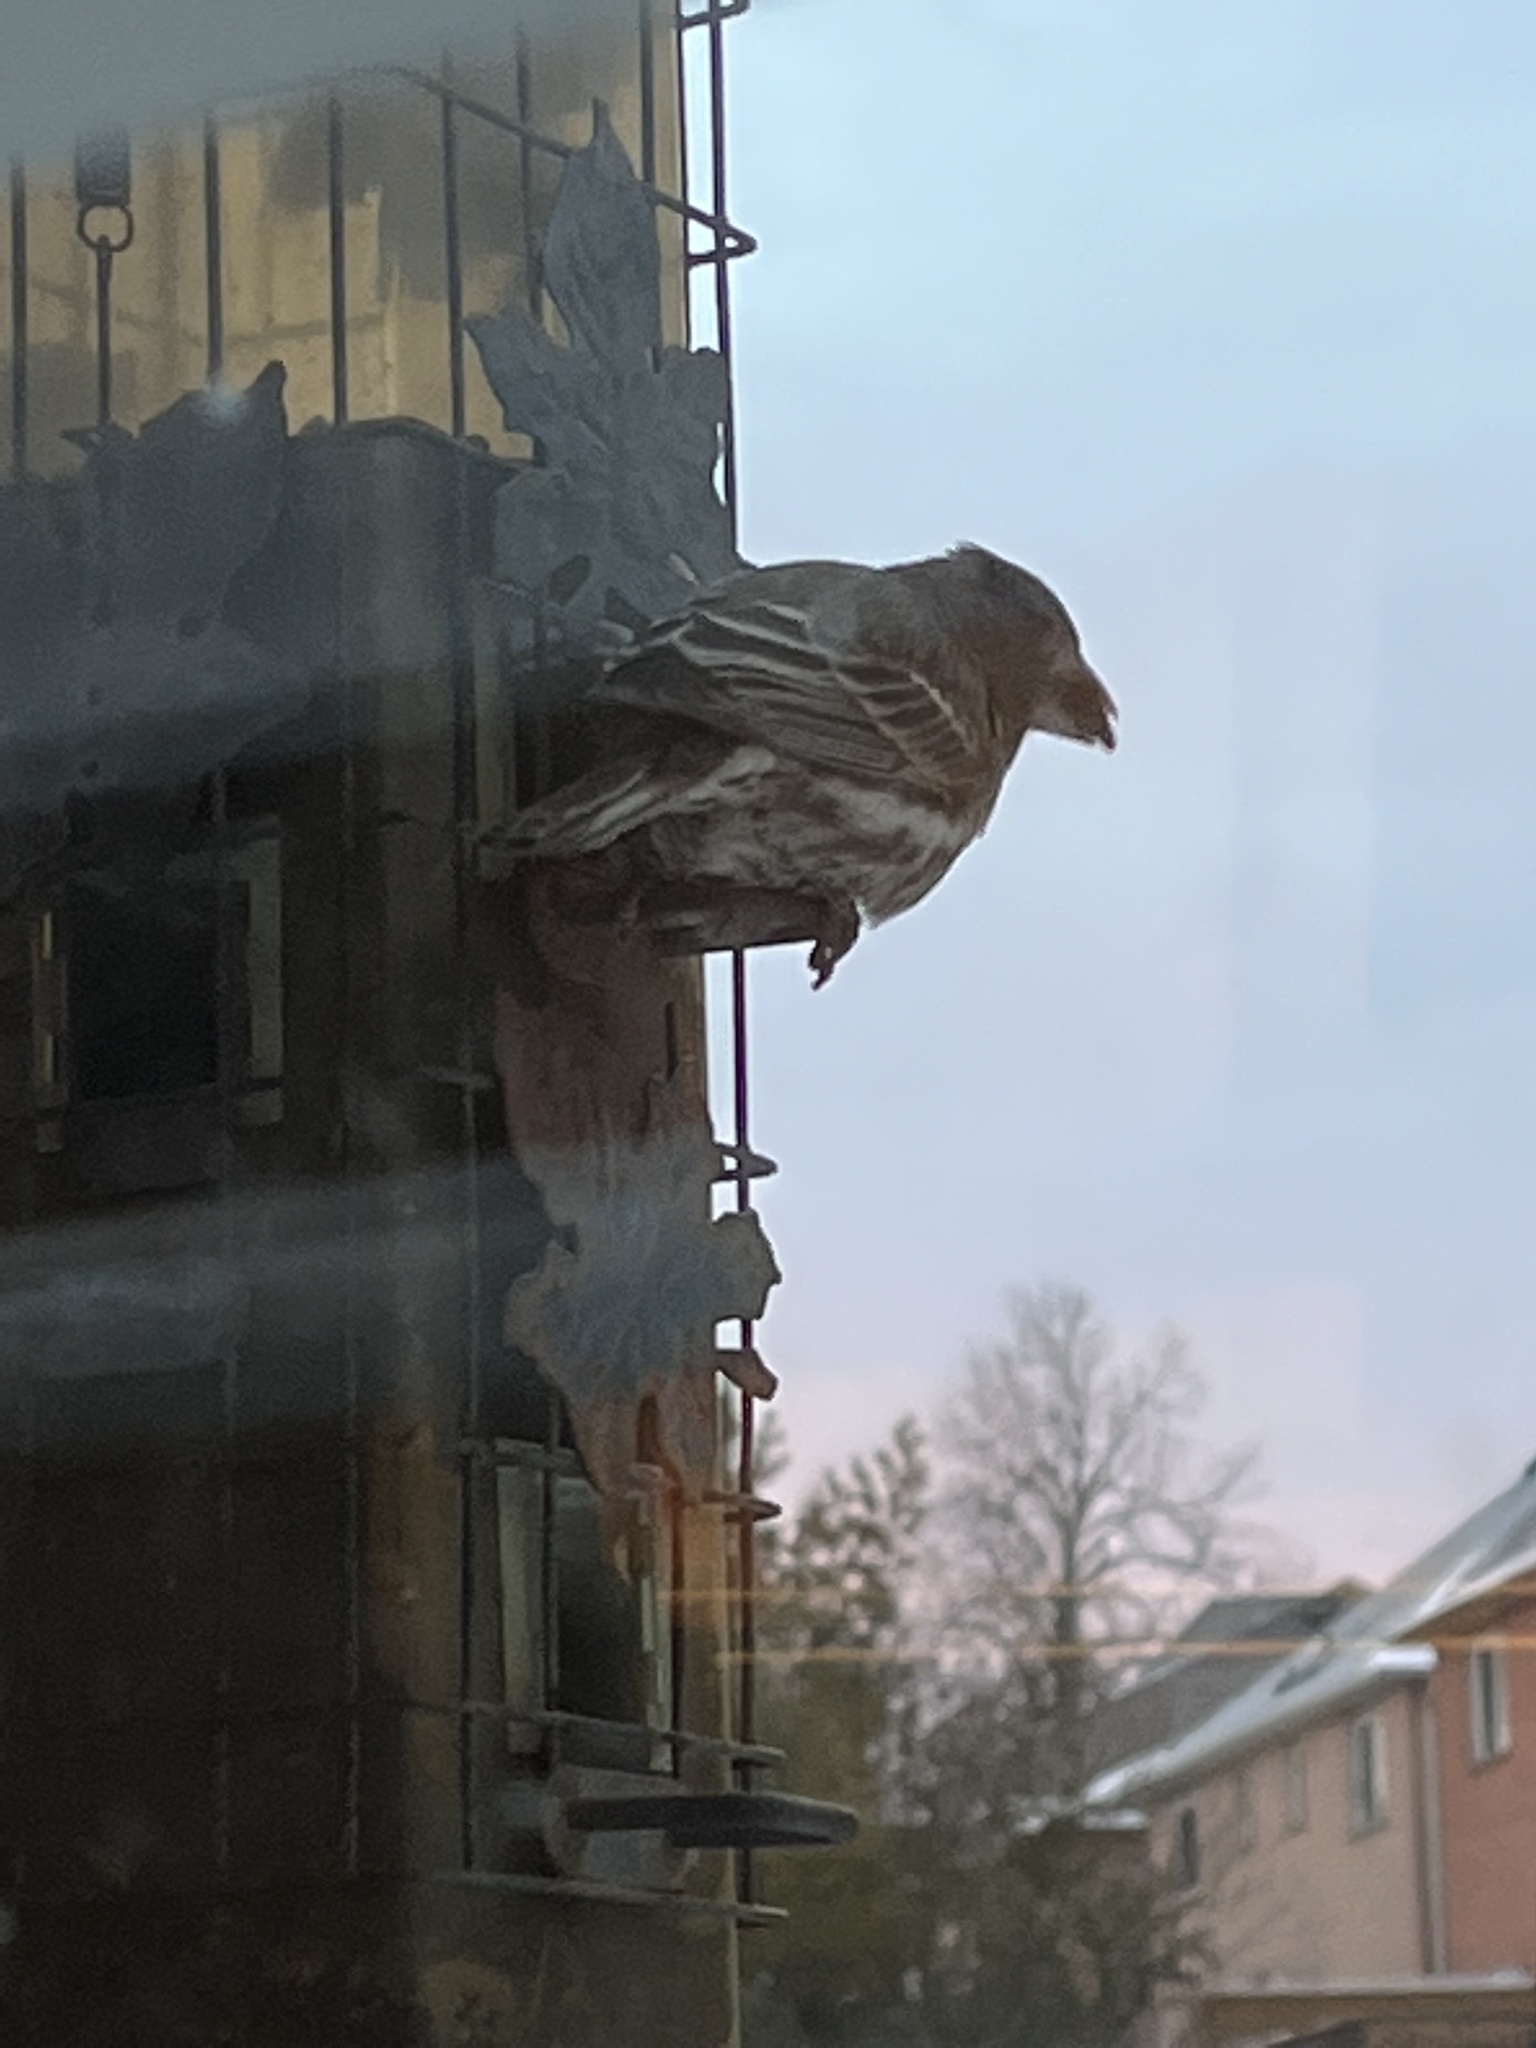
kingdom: Animalia
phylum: Chordata
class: Aves
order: Passeriformes
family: Fringillidae
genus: Haemorhous
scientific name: Haemorhous mexicanus
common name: House finch
